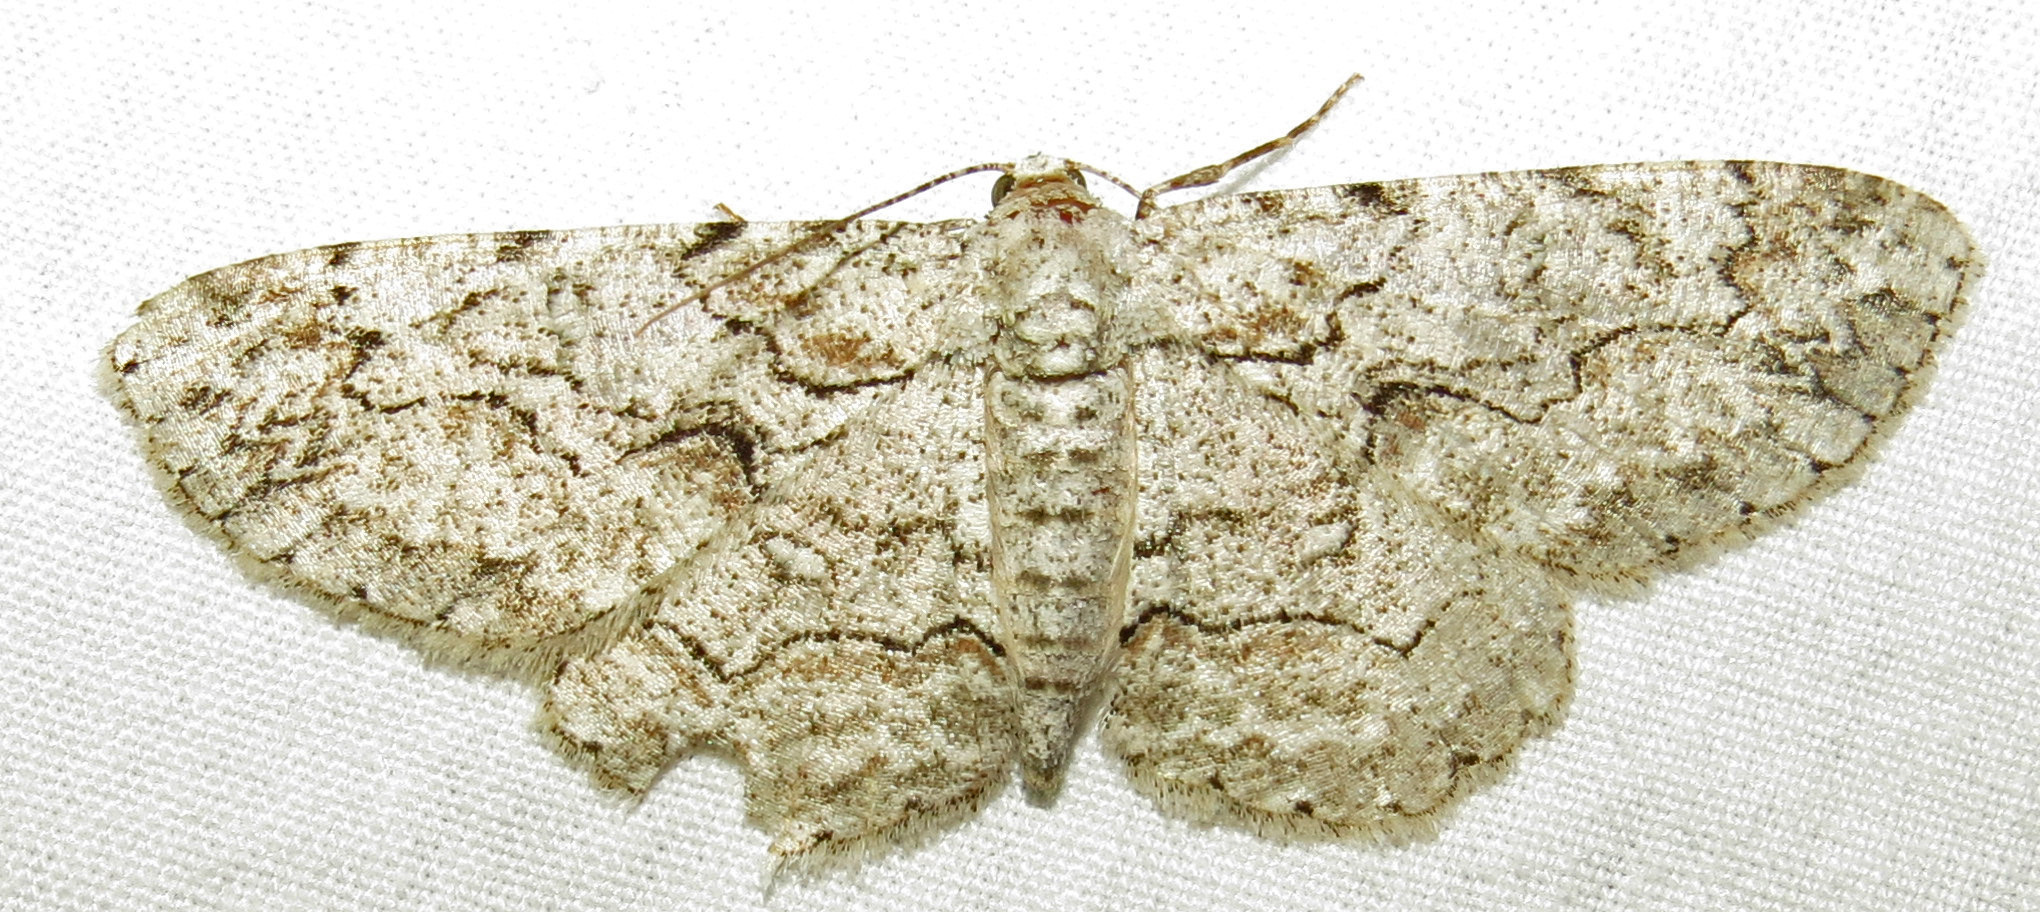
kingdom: Animalia
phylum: Arthropoda
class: Insecta
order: Lepidoptera
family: Geometridae
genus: Iridopsis
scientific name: Iridopsis defectaria
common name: Brown-shaded gray
